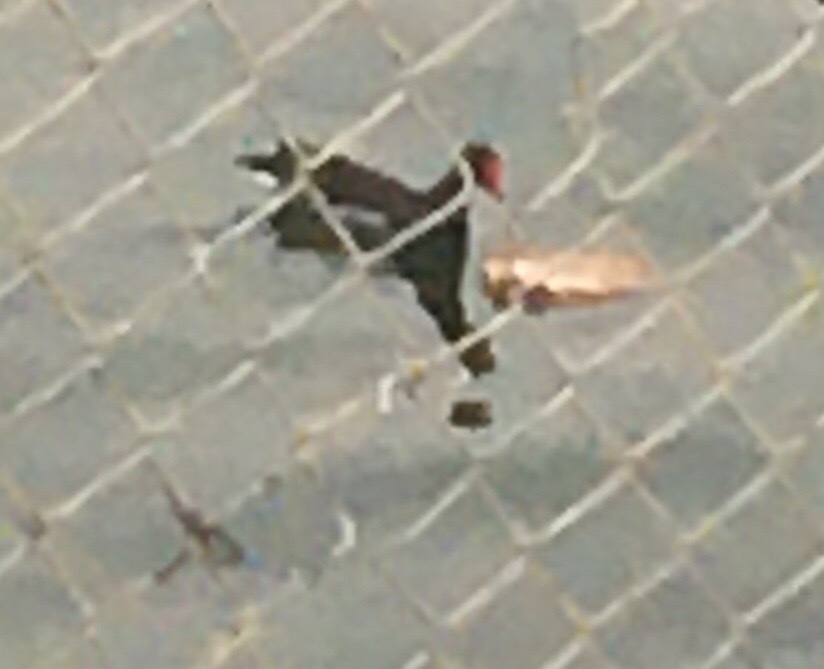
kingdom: Animalia
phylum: Chordata
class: Aves
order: Gruiformes
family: Rallidae
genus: Gallinula
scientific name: Gallinula chloropus
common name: Common moorhen
